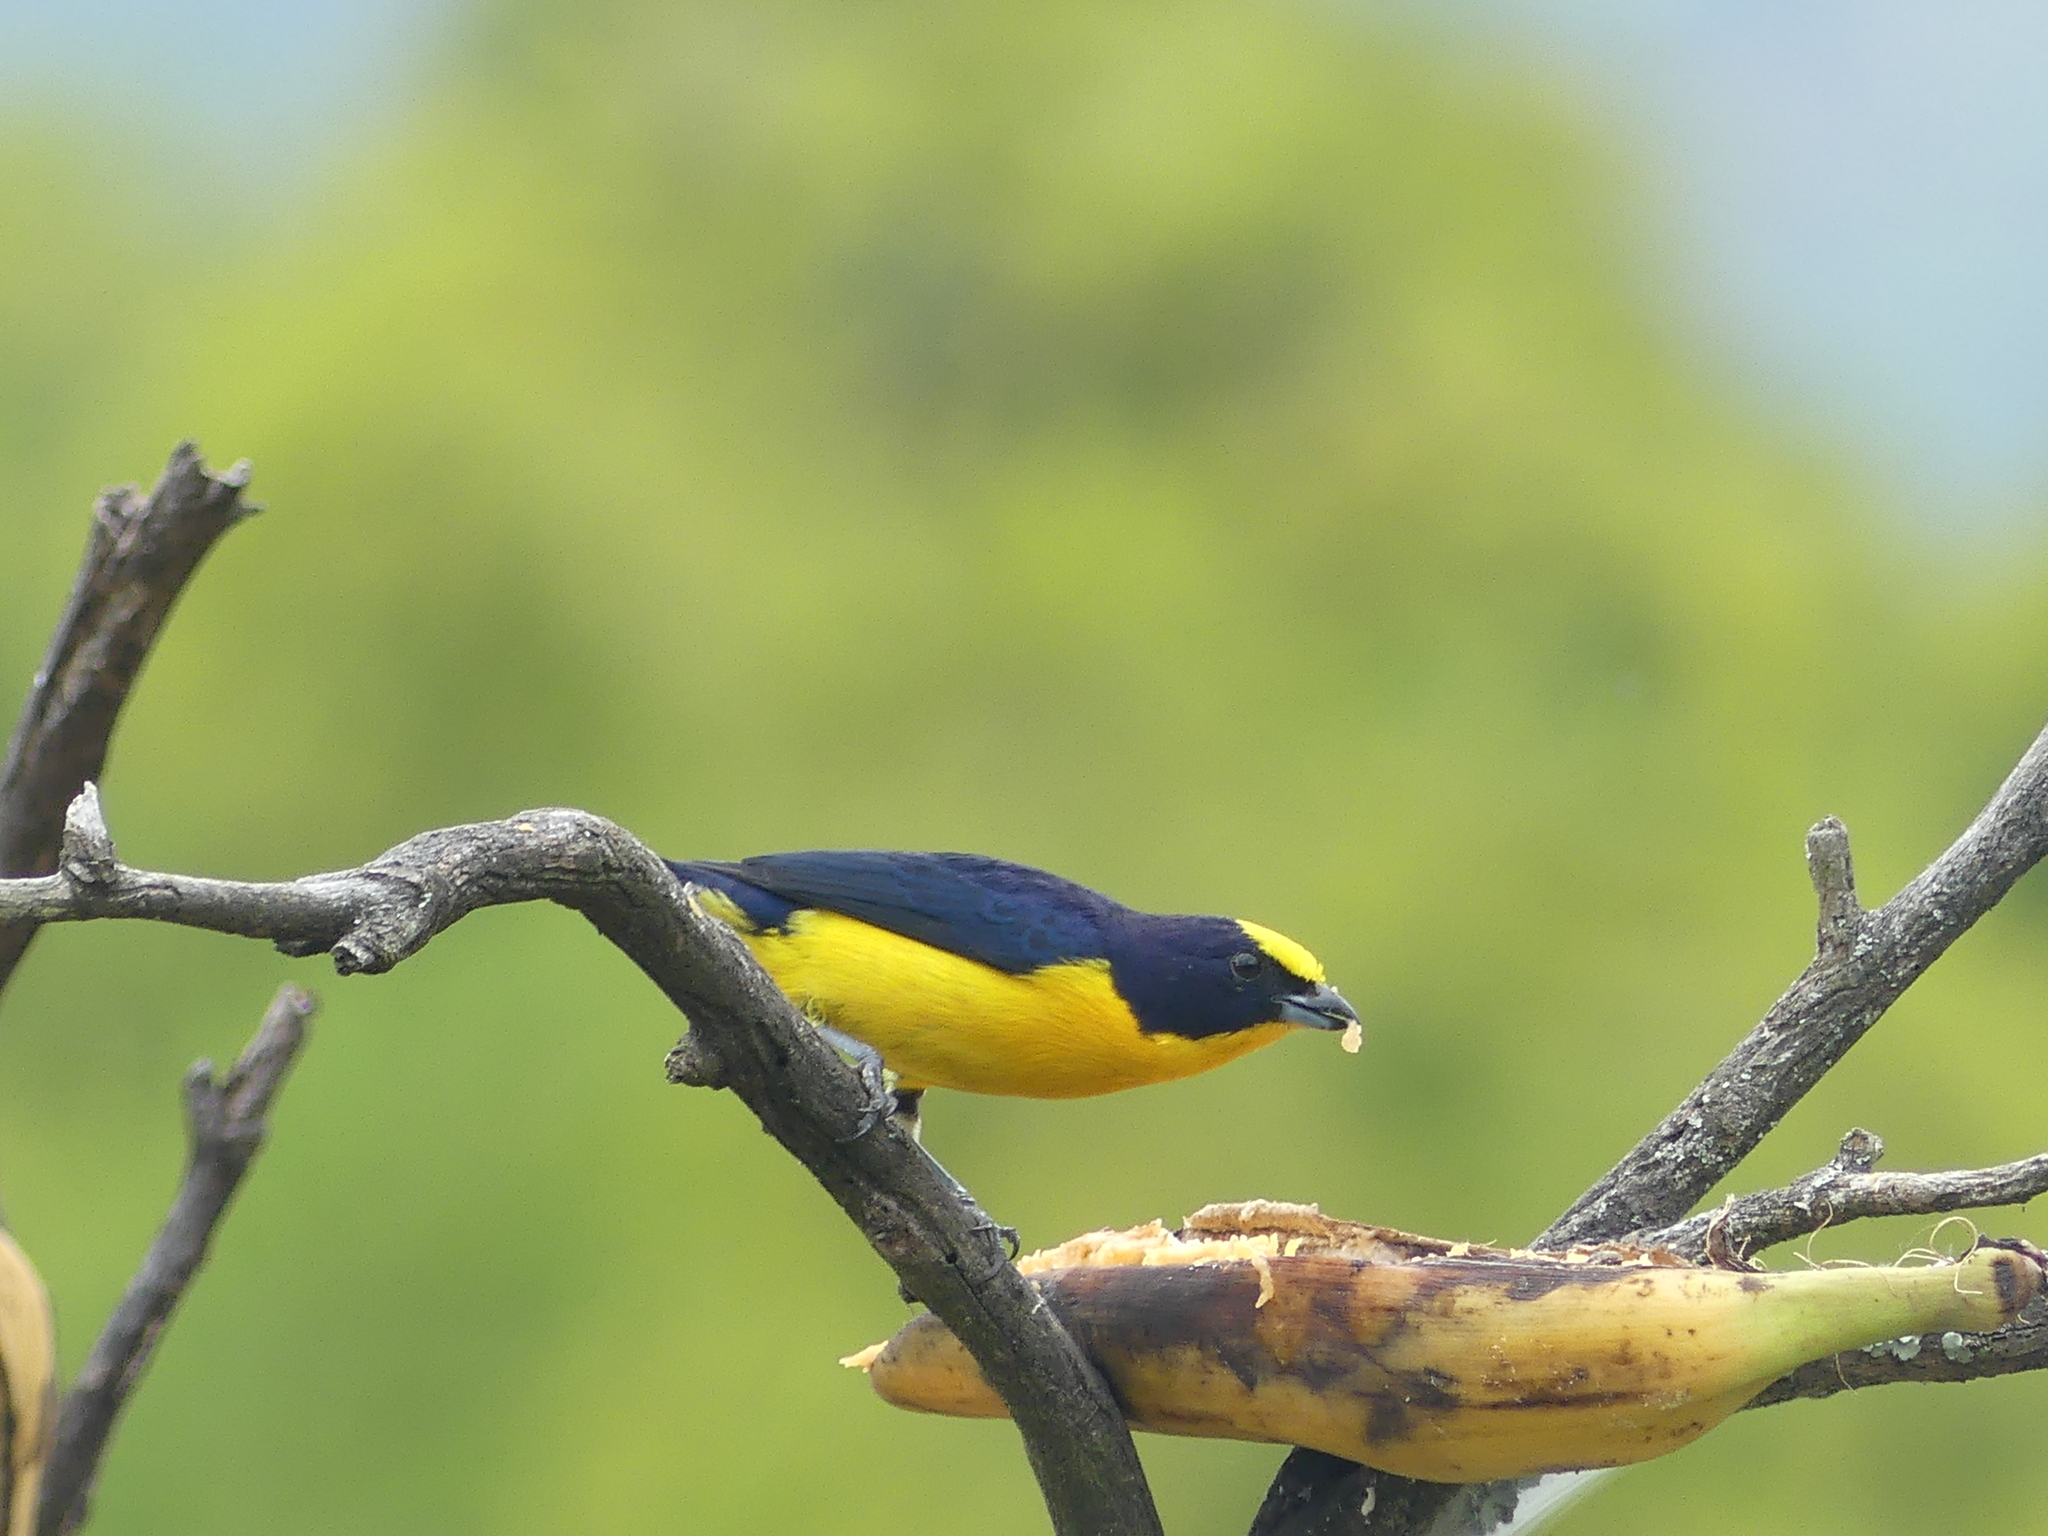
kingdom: Animalia
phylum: Chordata
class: Aves
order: Passeriformes
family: Fringillidae
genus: Euphonia
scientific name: Euphonia laniirostris
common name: Thick-billed euphonia
